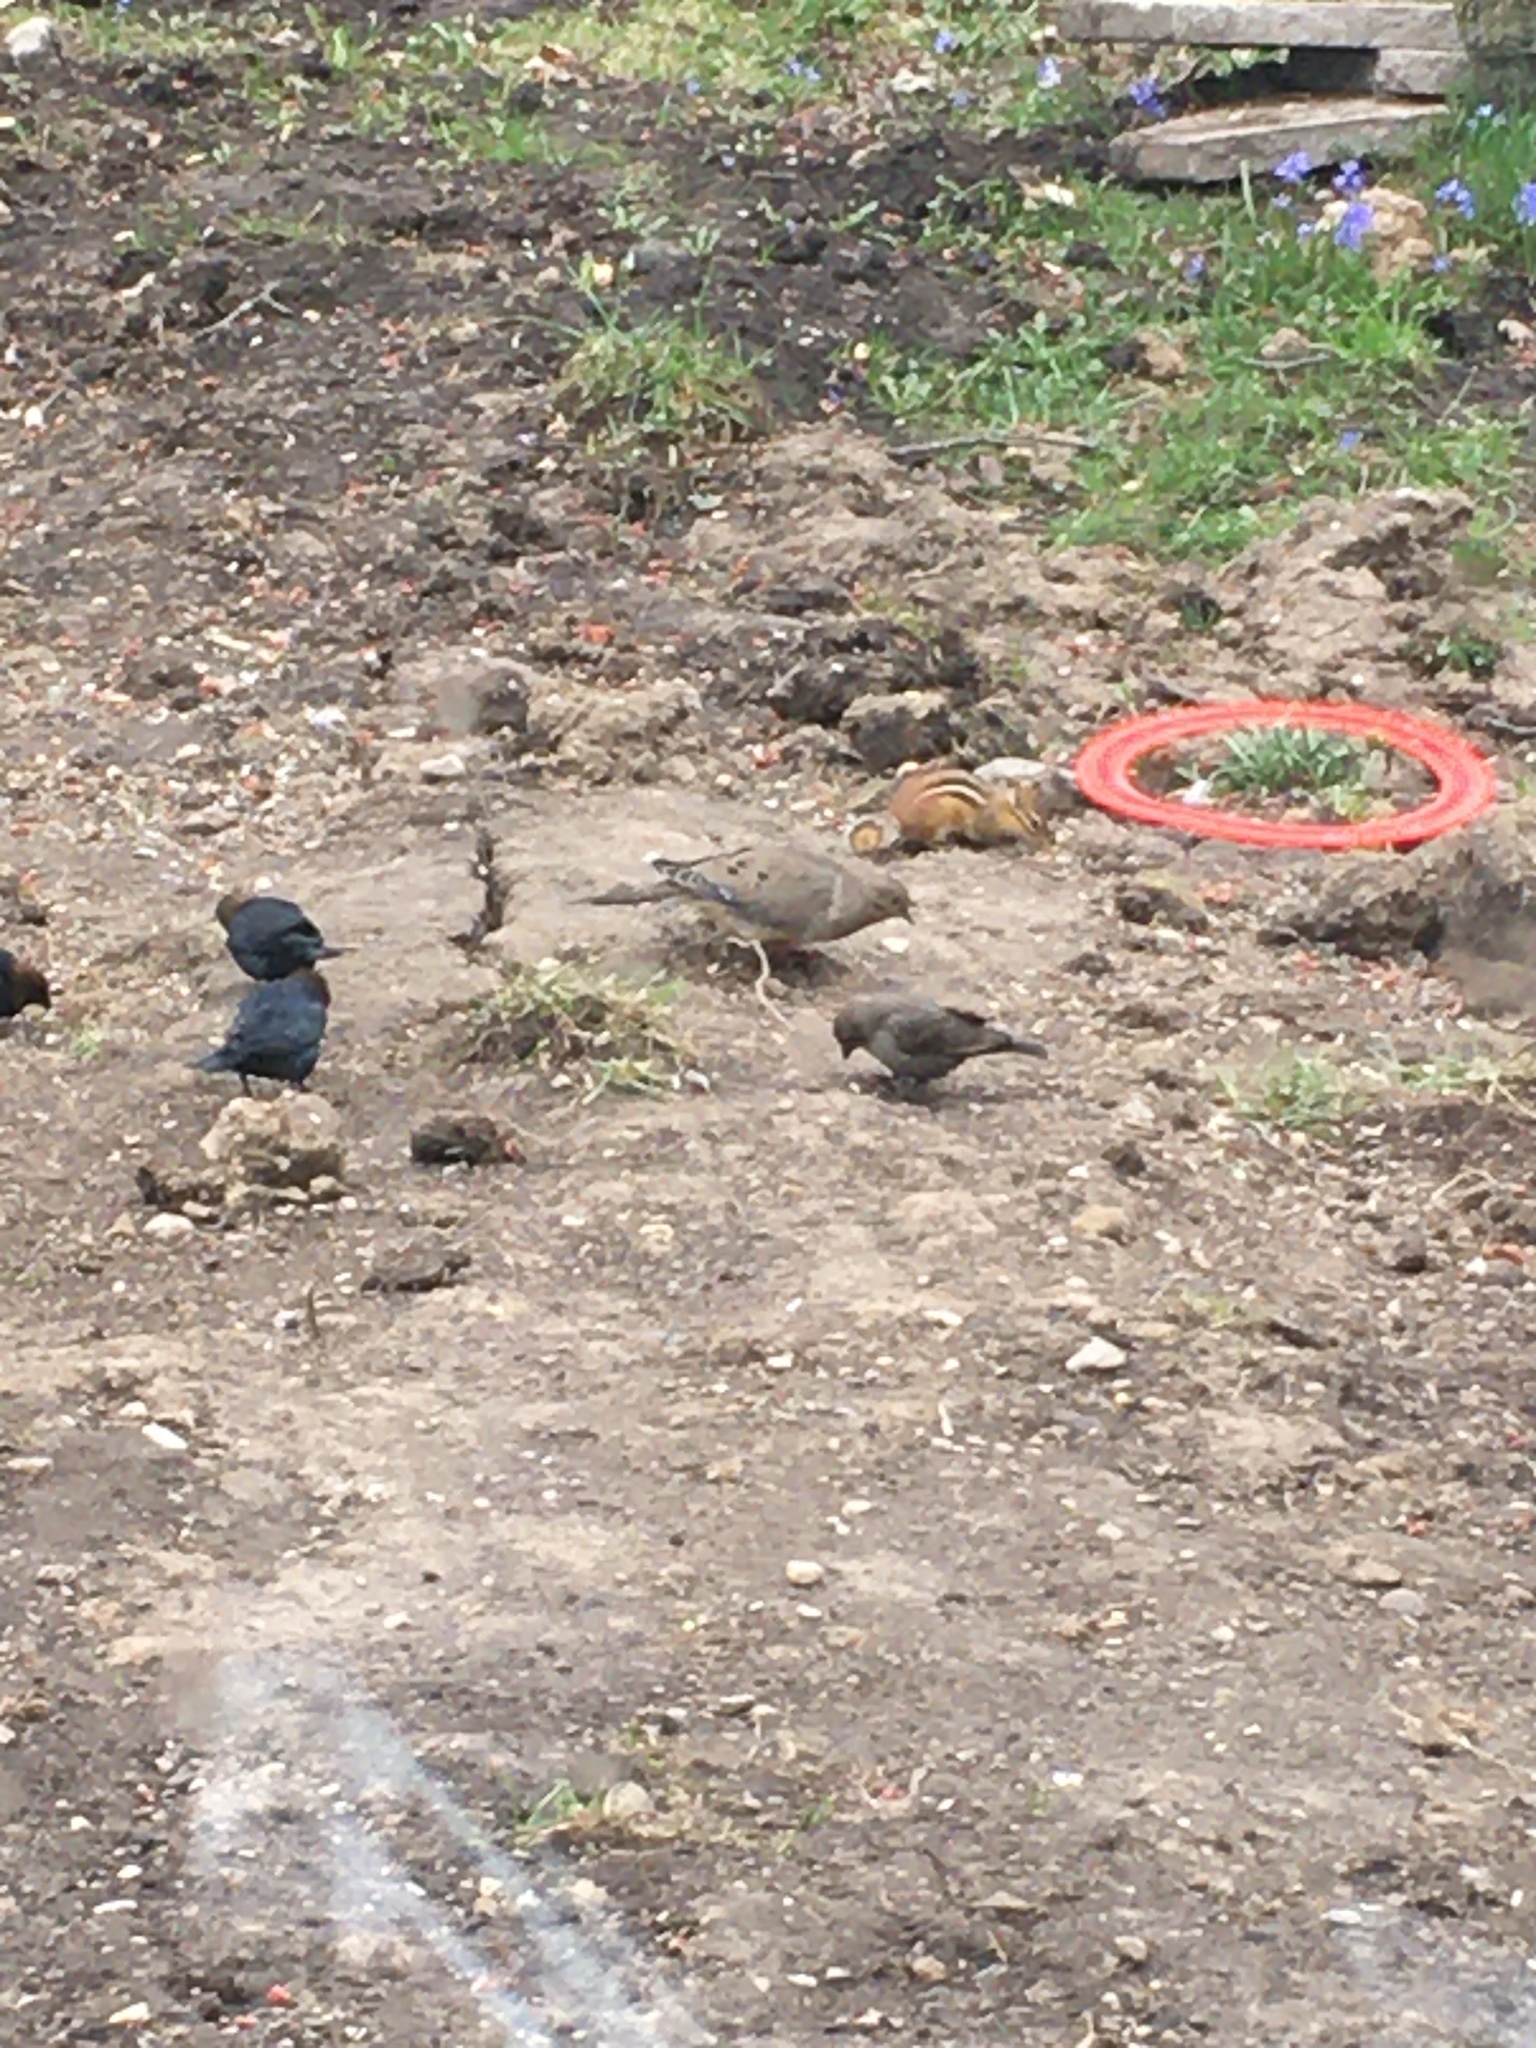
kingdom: Animalia
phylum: Chordata
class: Mammalia
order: Rodentia
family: Sciuridae
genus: Tamias
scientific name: Tamias striatus
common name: Eastern chipmunk
